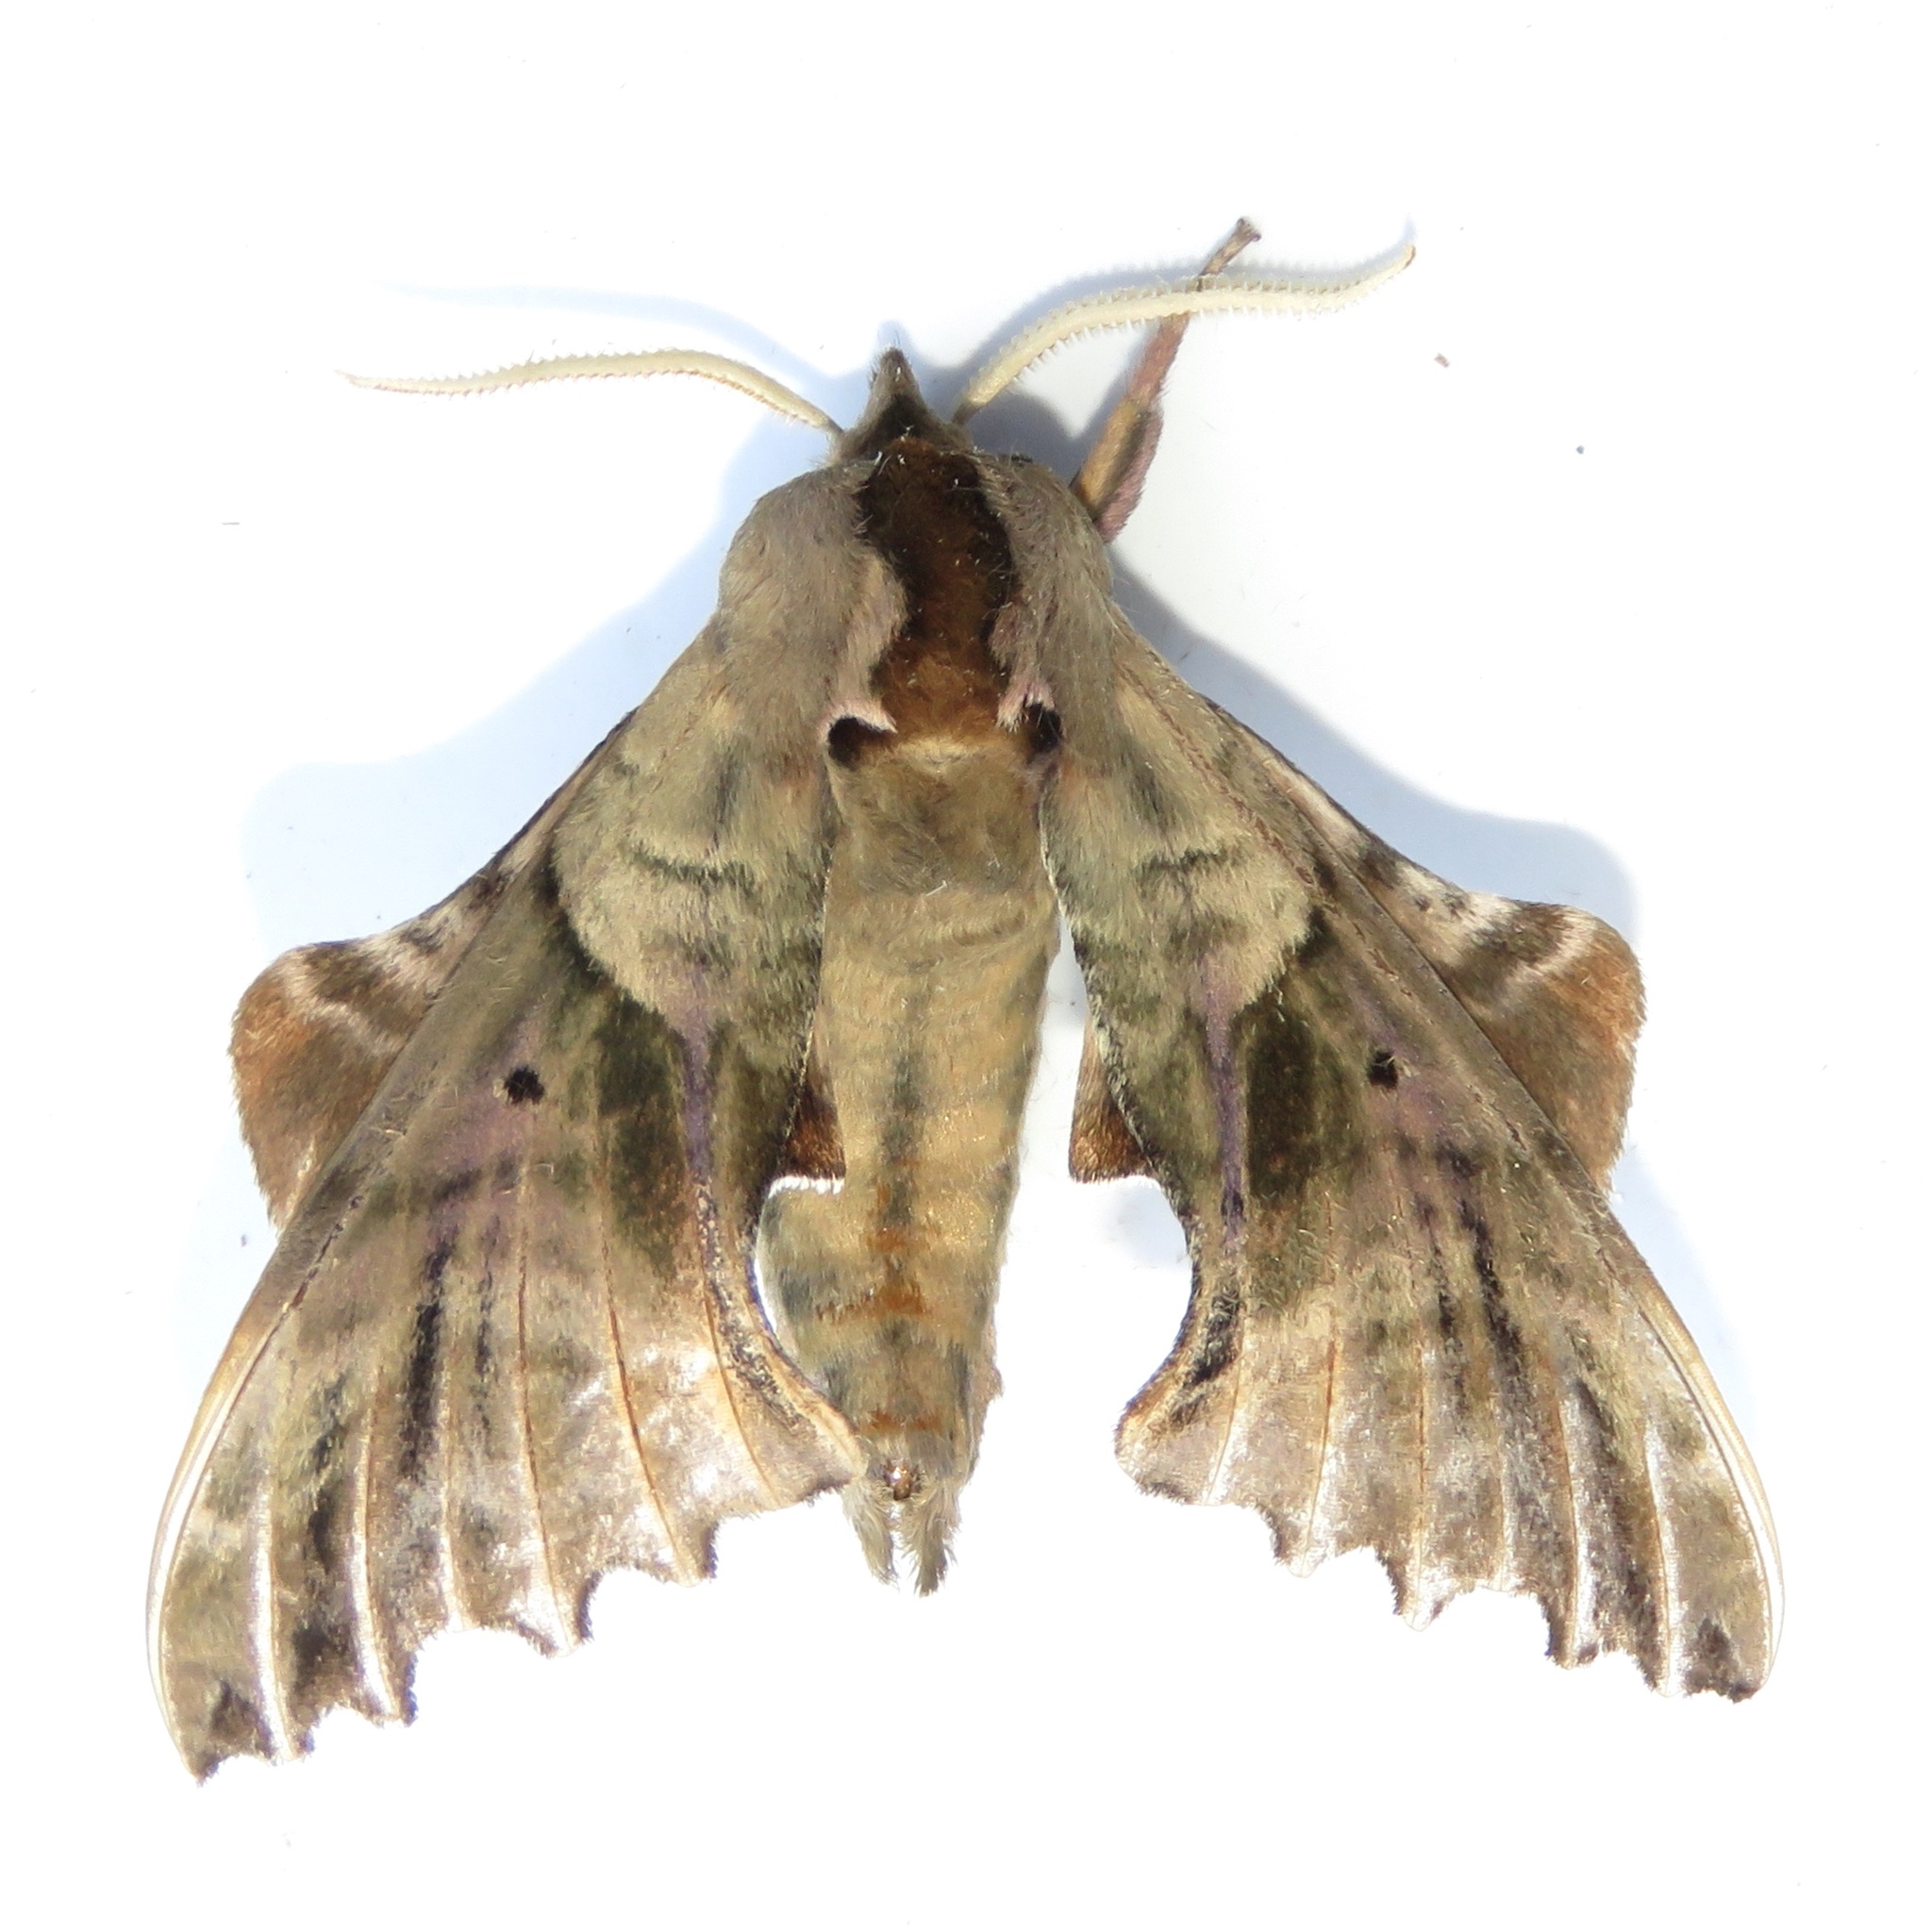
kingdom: Animalia
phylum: Arthropoda
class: Insecta
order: Lepidoptera
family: Sphingidae
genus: Paonias
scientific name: Paonias excaecata
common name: Blind-eyed sphinx
